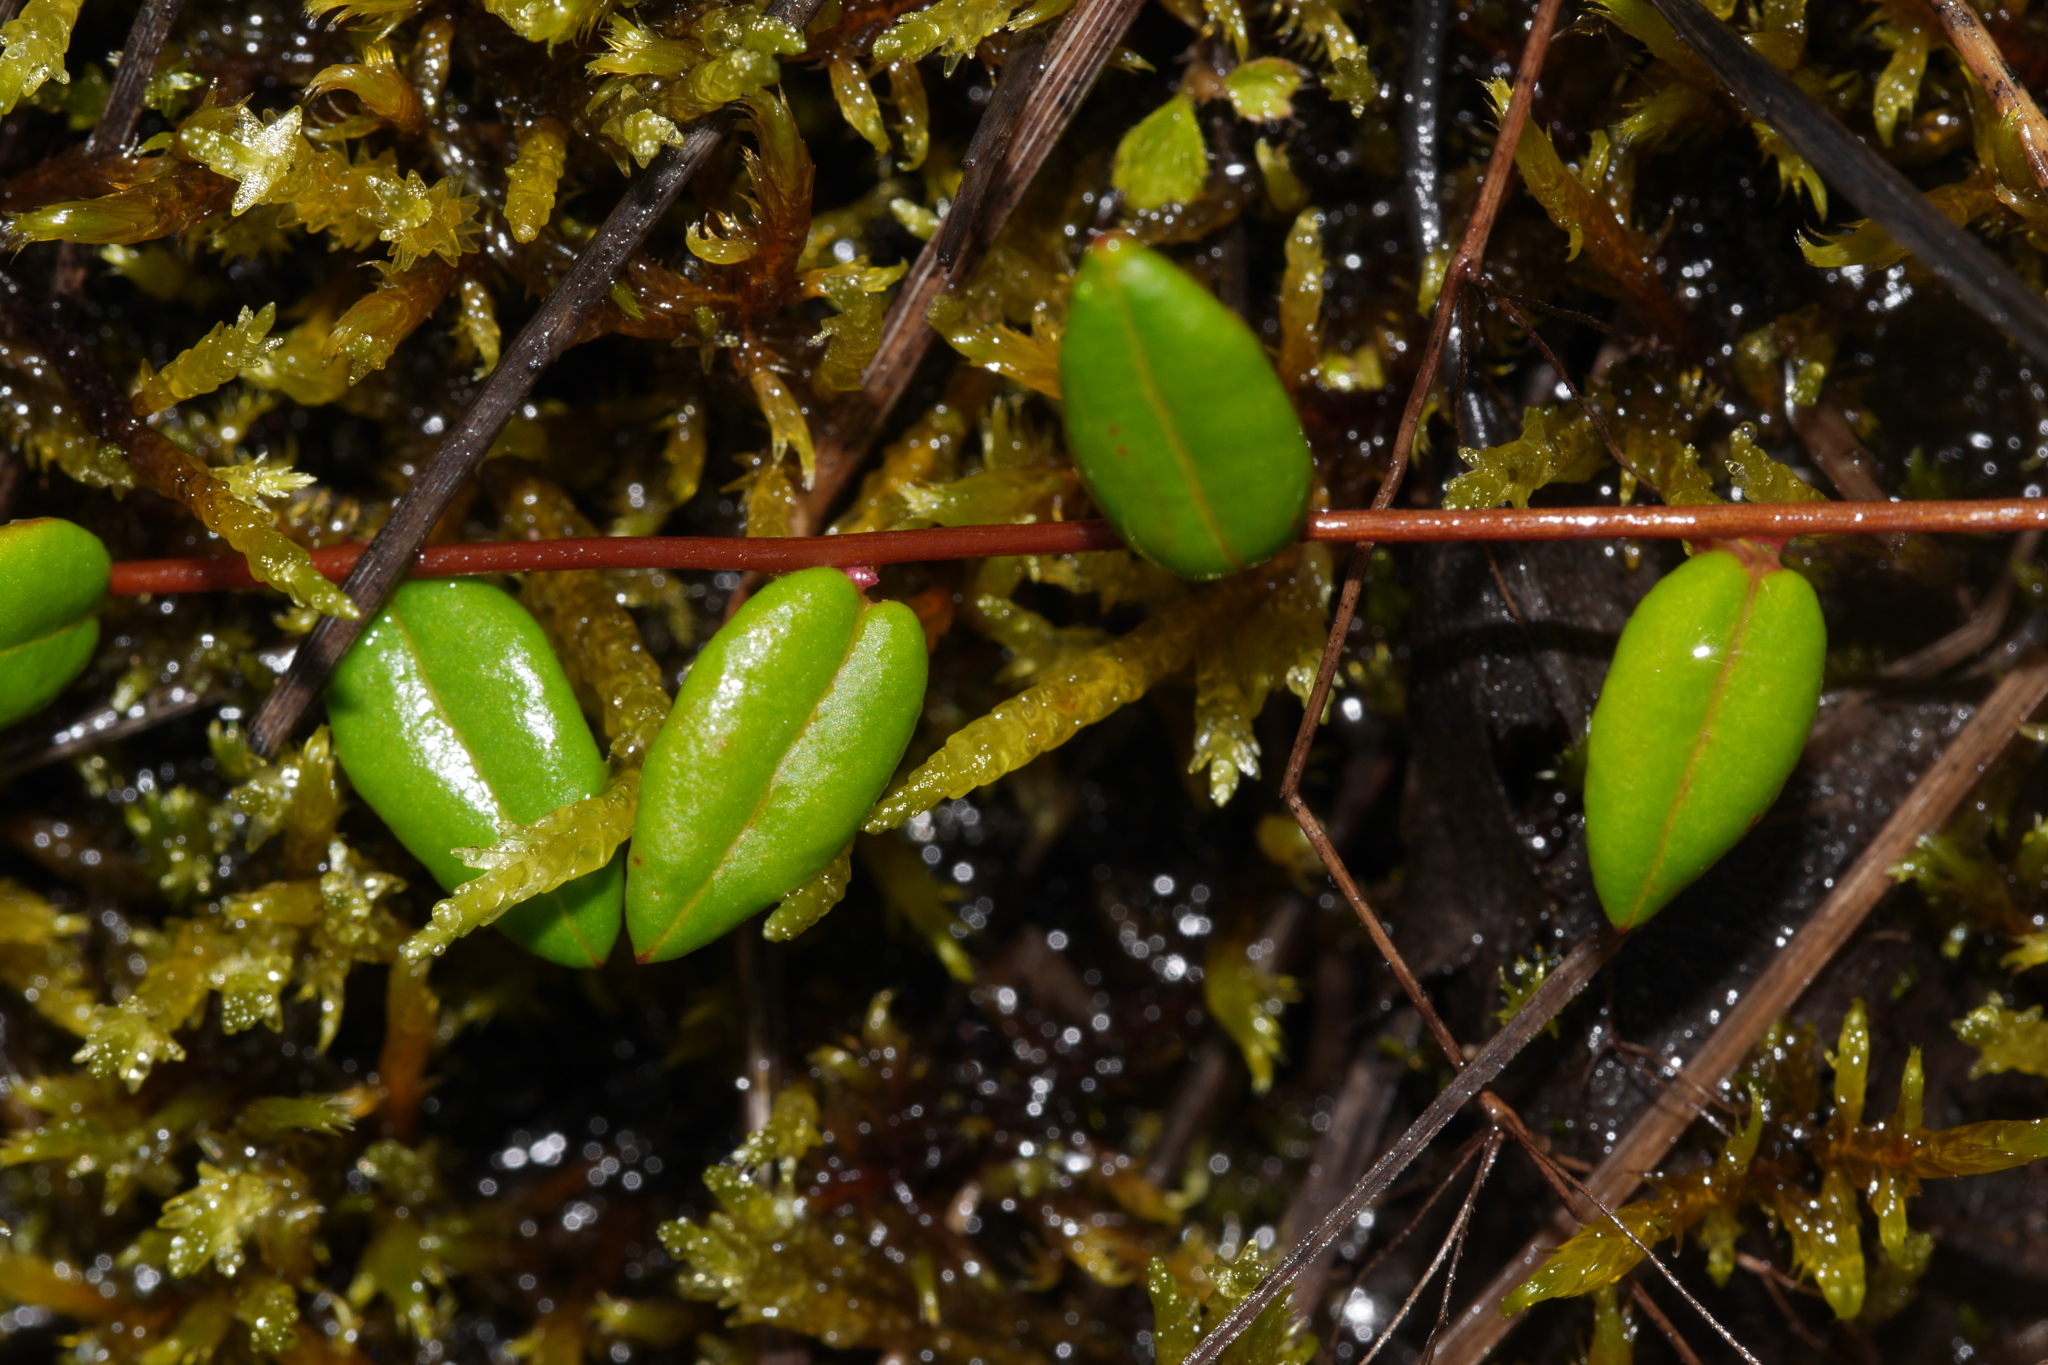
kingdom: Plantae
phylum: Tracheophyta
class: Magnoliopsida
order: Ericales
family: Ericaceae
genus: Vaccinium
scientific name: Vaccinium oxycoccos
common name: Cranberry
